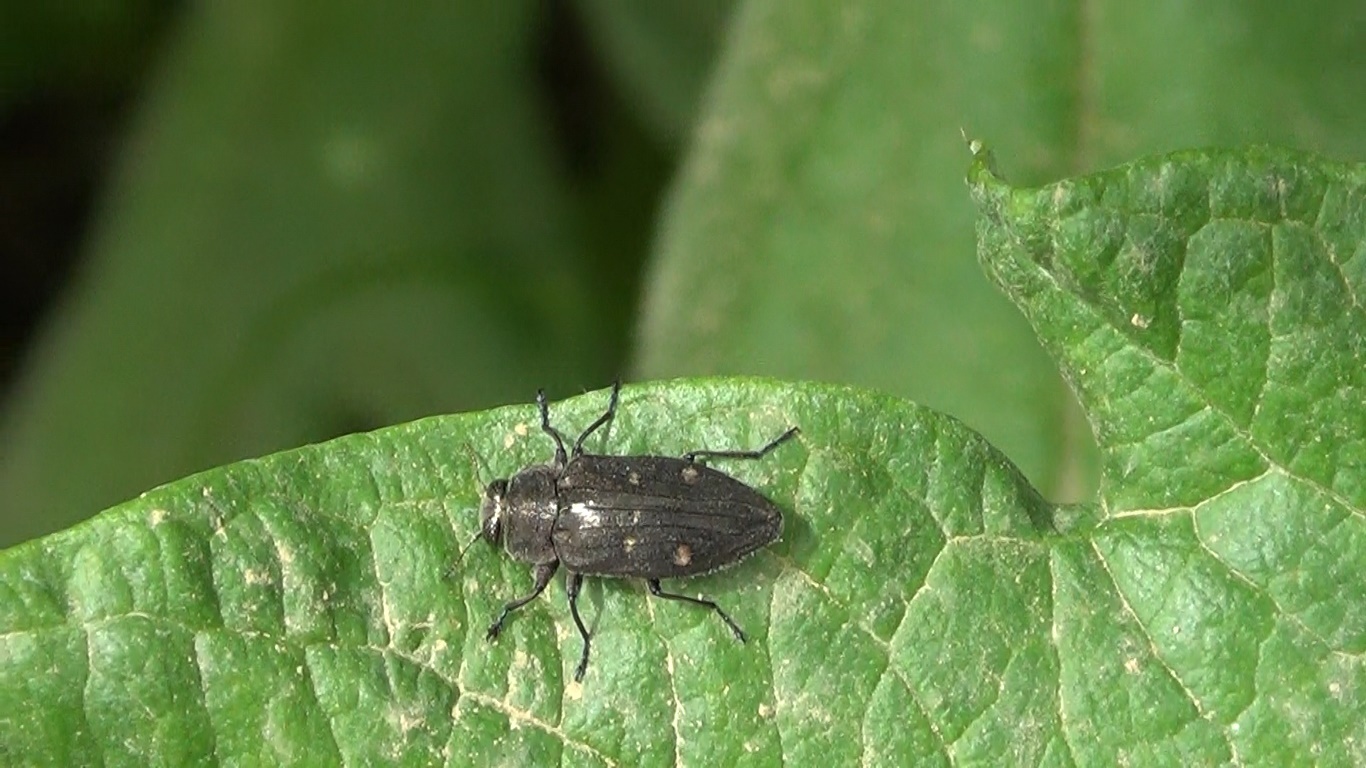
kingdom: Animalia
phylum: Arthropoda
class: Insecta
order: Coleoptera
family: Buprestidae
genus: Chrysobothris
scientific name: Chrysobothris affinis
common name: Beetle
